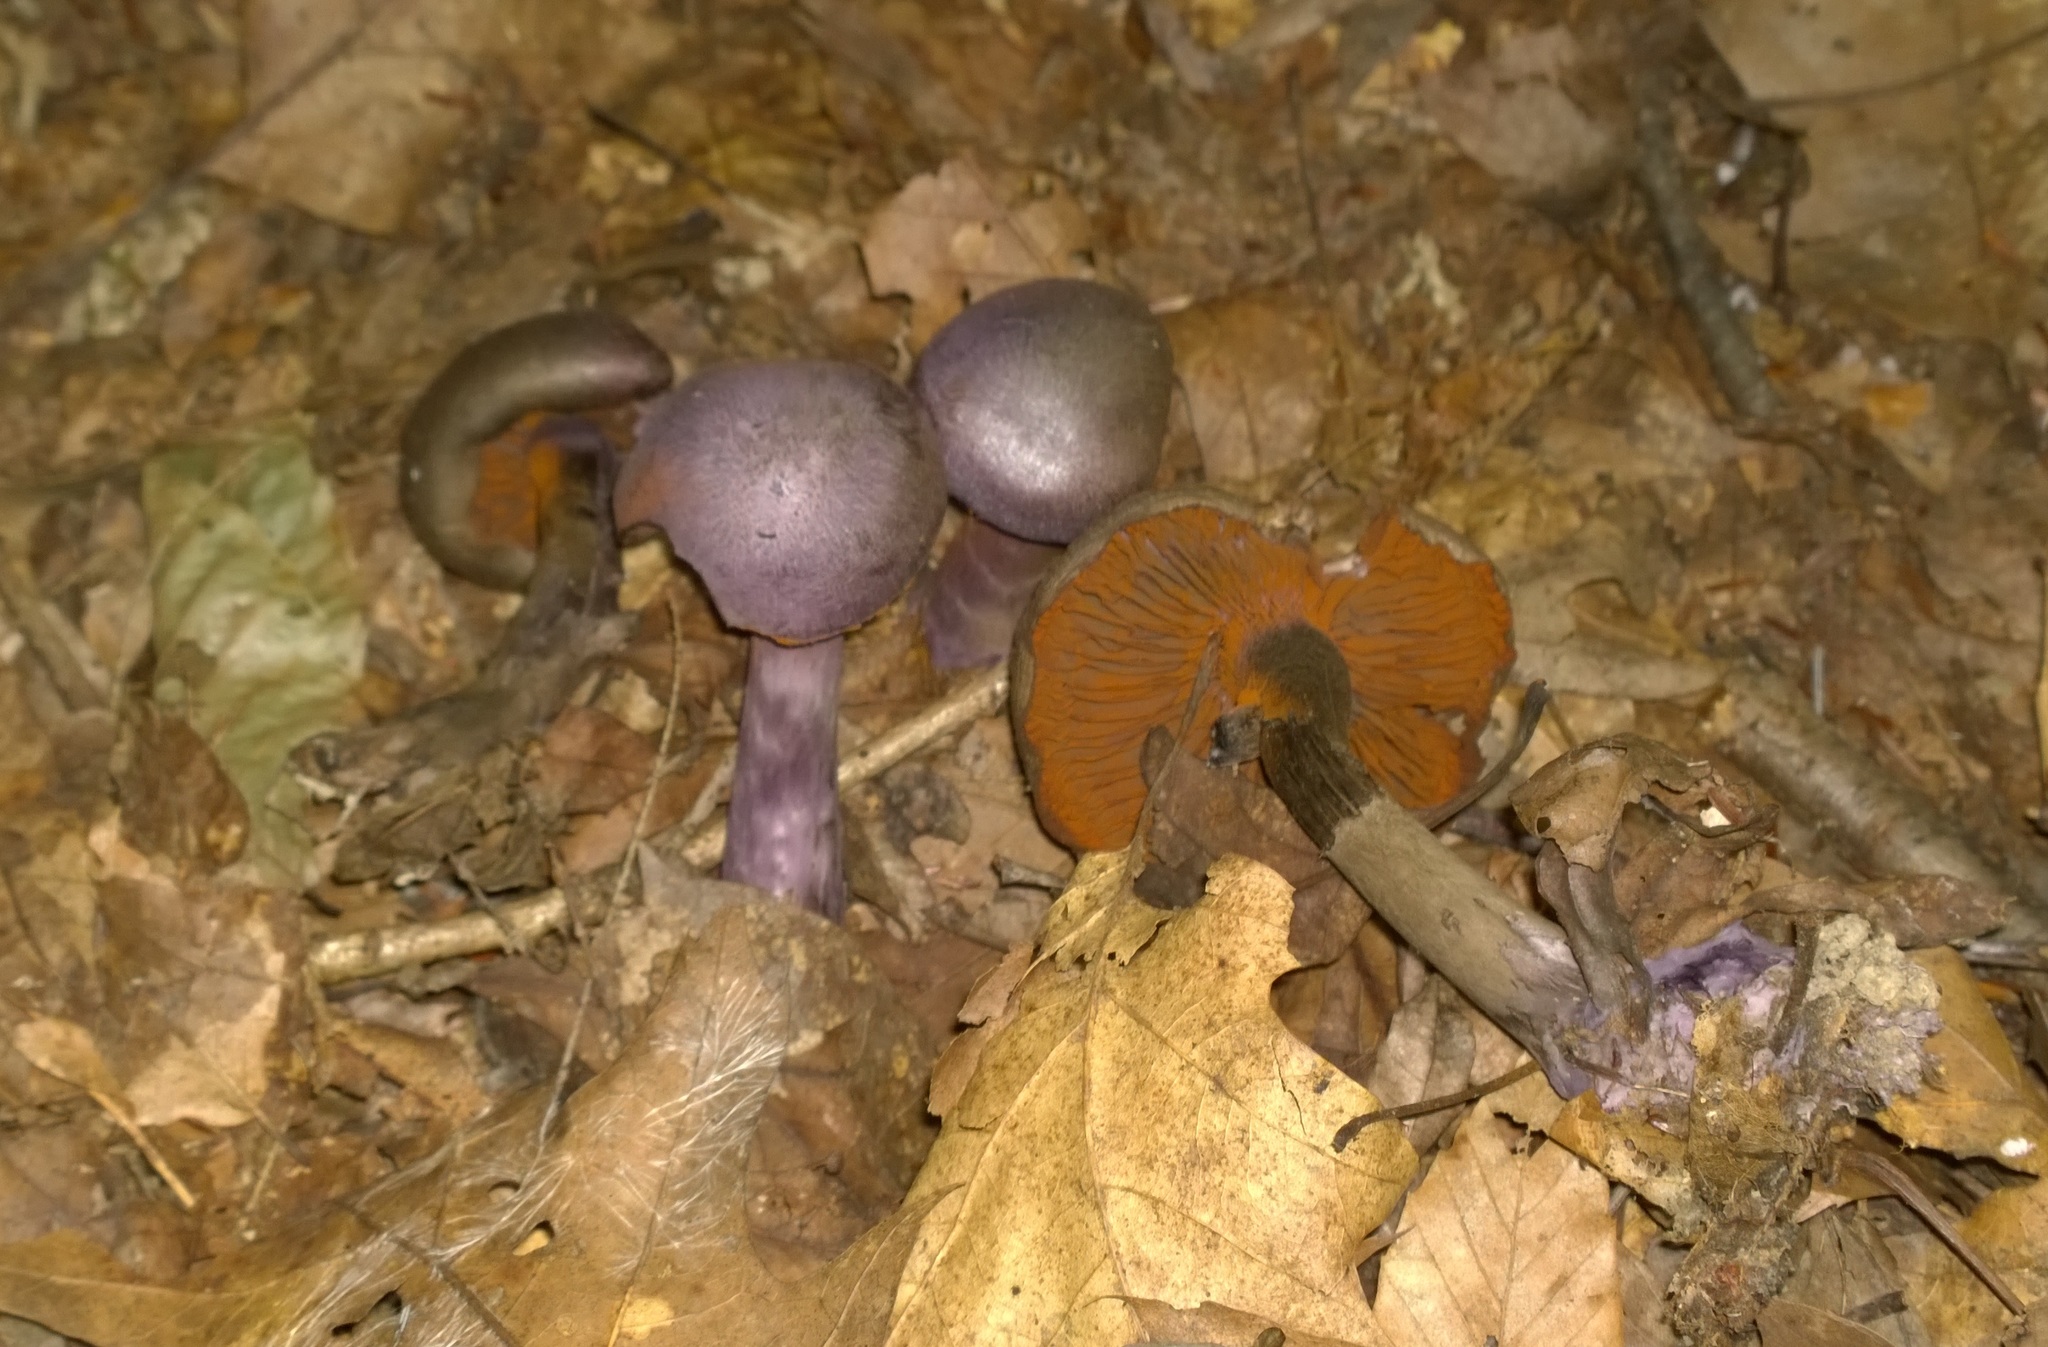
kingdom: Fungi
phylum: Basidiomycota
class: Agaricomycetes
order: Agaricales
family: Cortinariaceae
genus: Cortinarius
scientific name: Cortinarius violaceus
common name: Violet webcap
